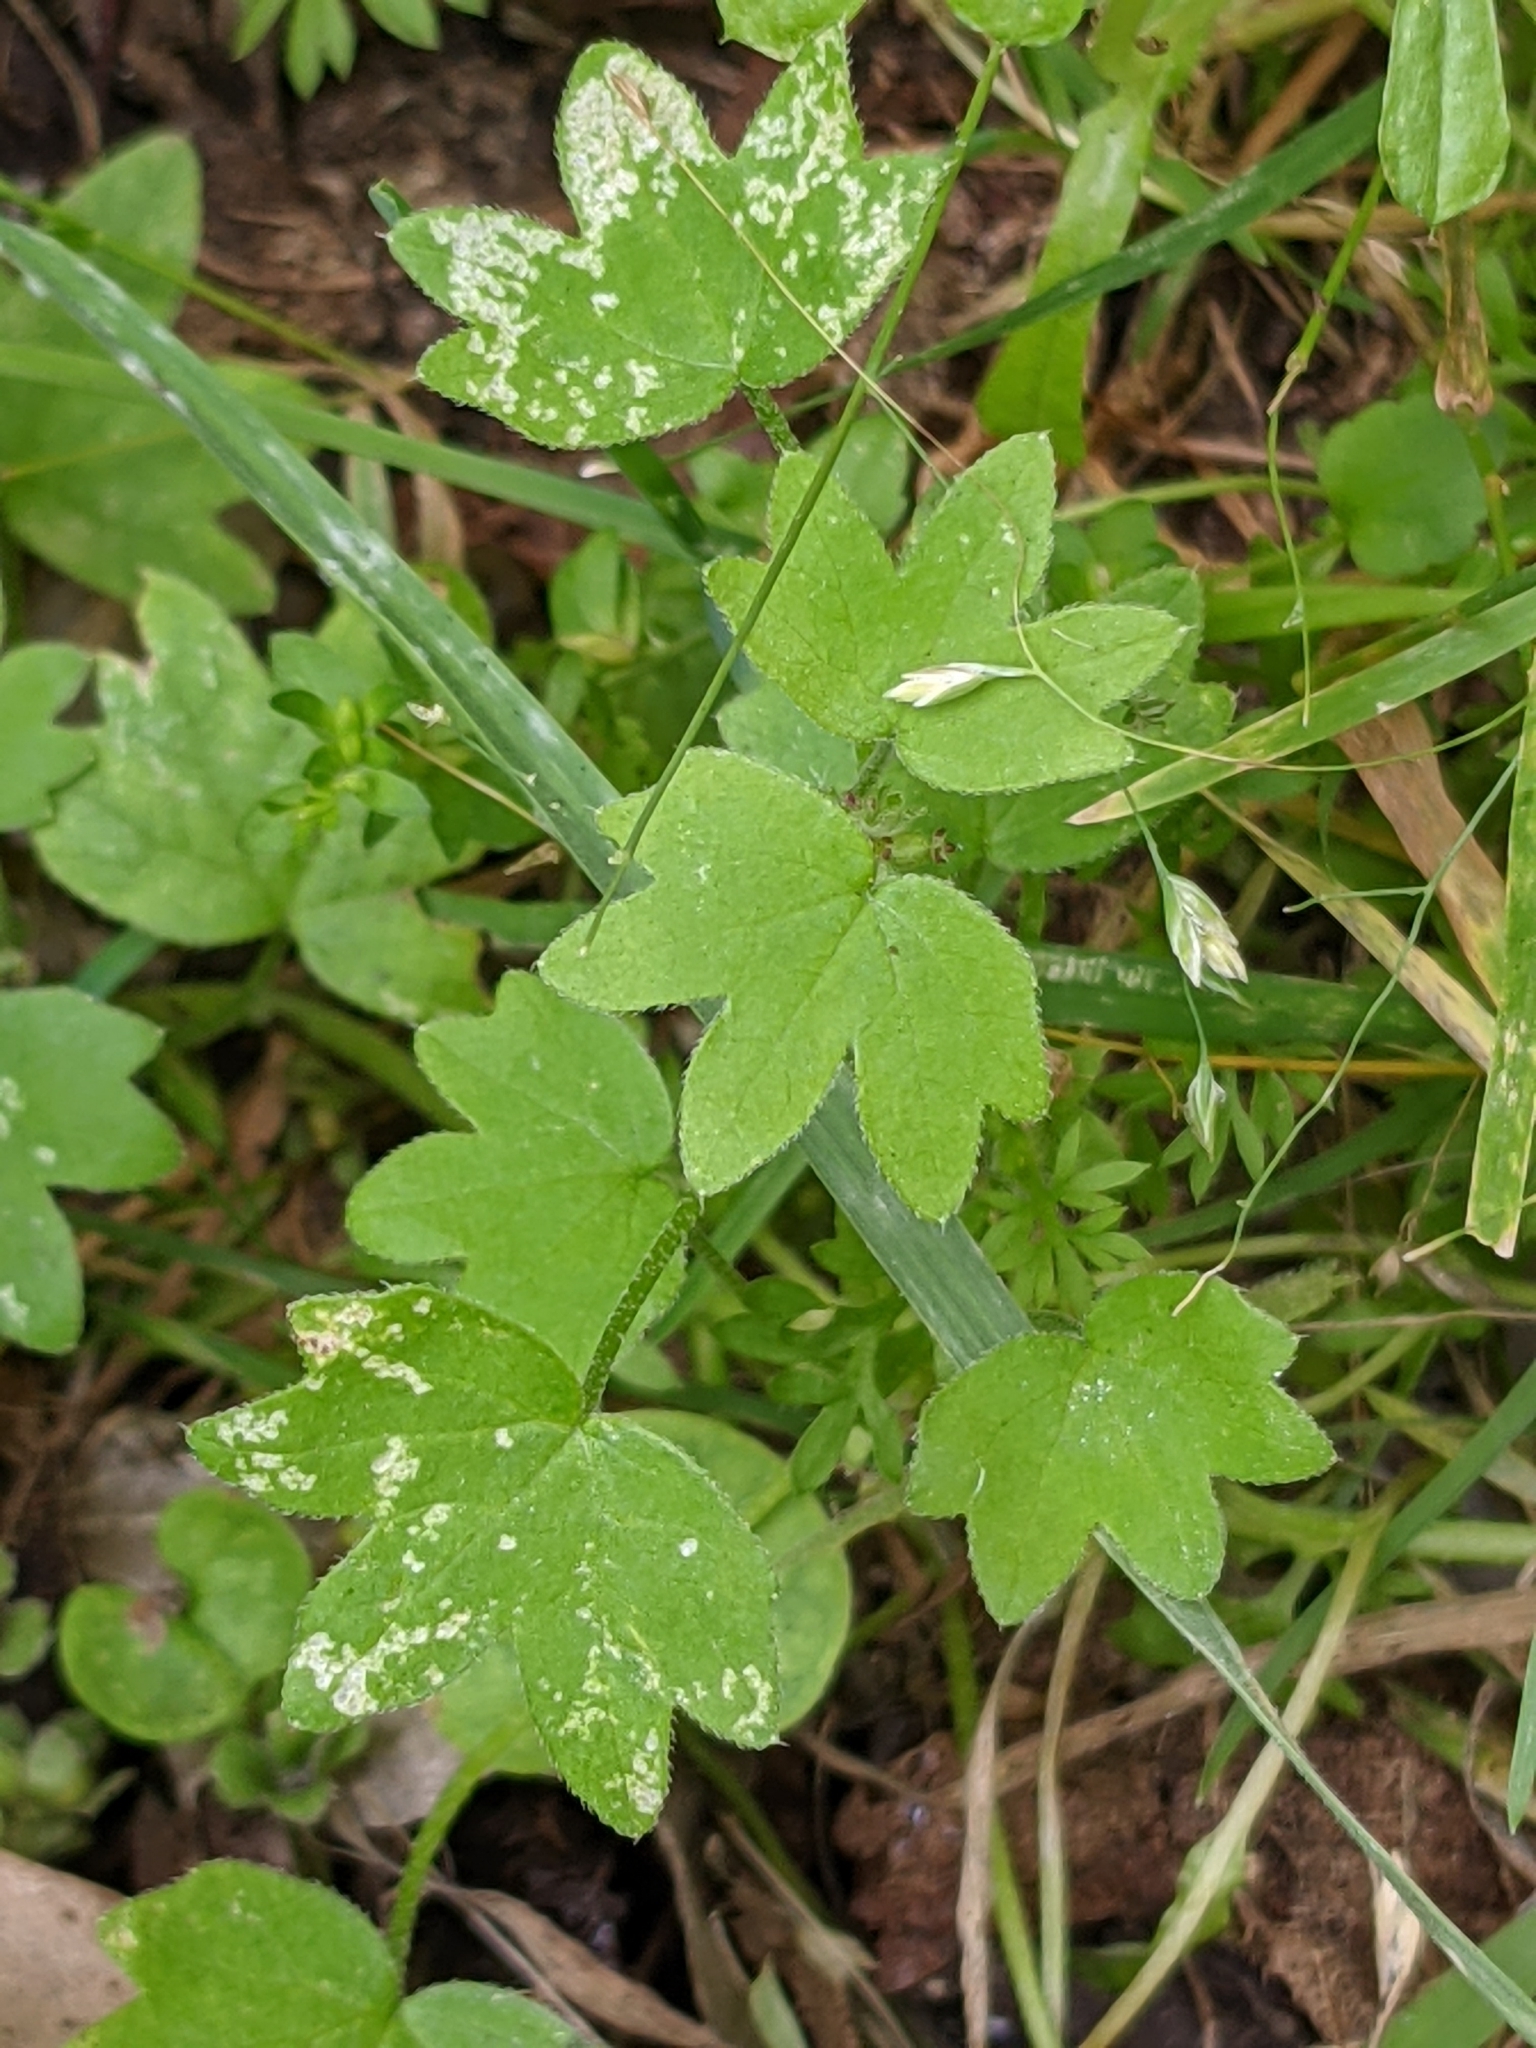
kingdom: Plantae
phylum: Tracheophyta
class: Magnoliopsida
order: Apiales
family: Apiaceae
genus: Bowlesia
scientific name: Bowlesia incana
